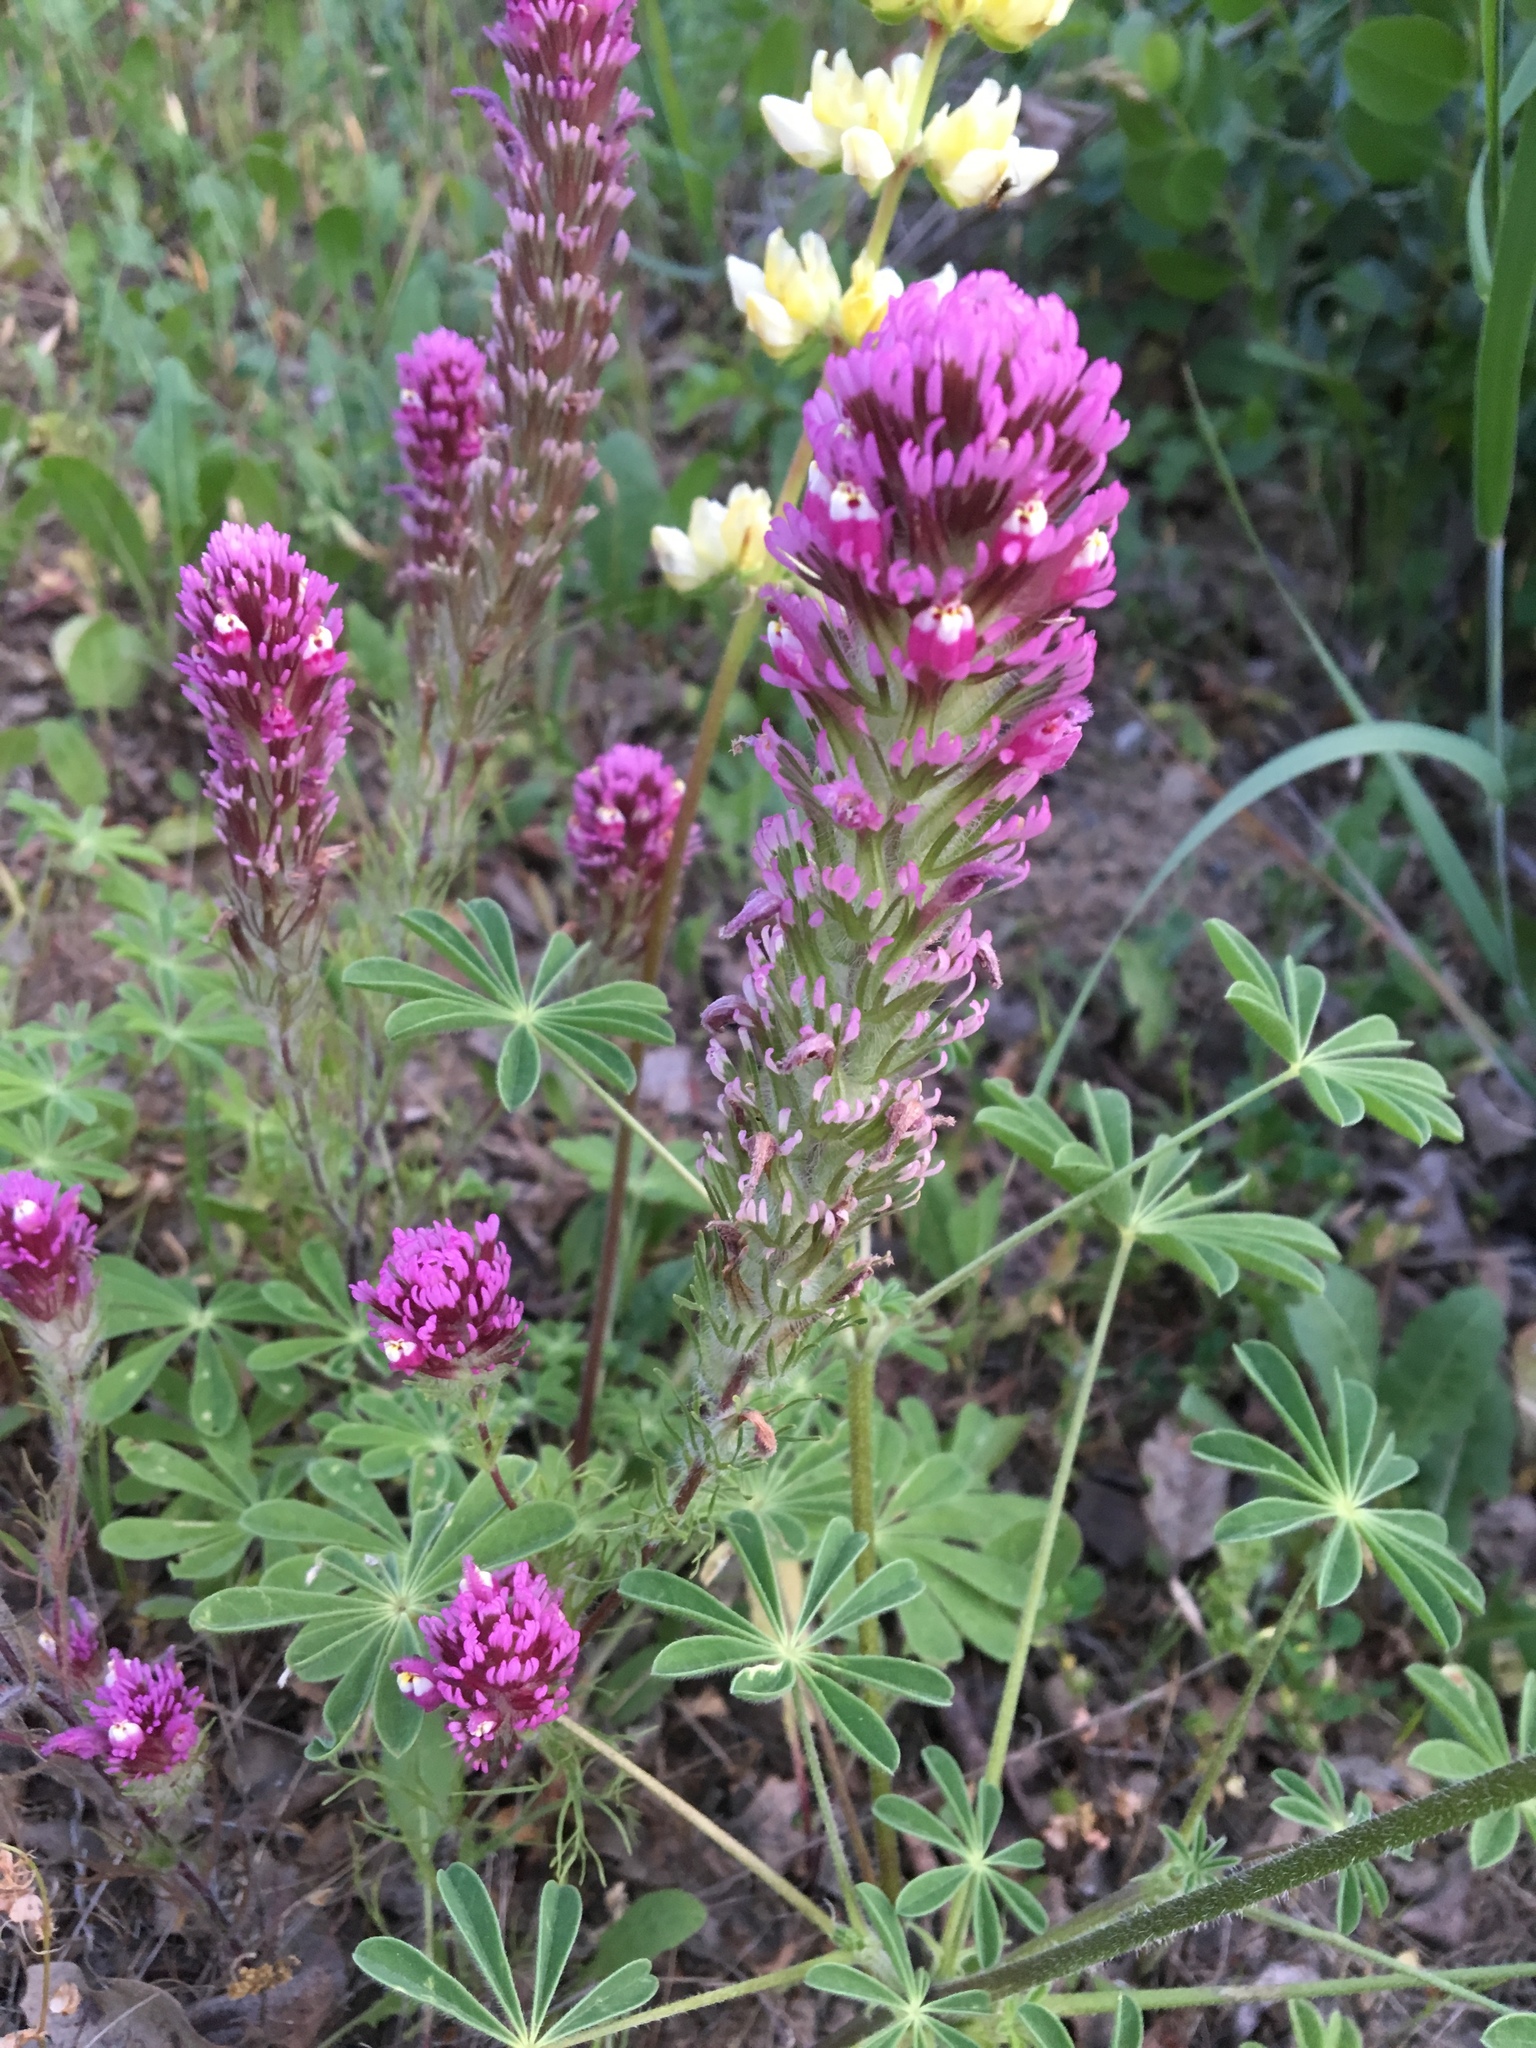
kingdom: Plantae
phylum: Tracheophyta
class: Magnoliopsida
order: Lamiales
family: Orobanchaceae
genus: Castilleja
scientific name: Castilleja exserta
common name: Purple owl-clover
